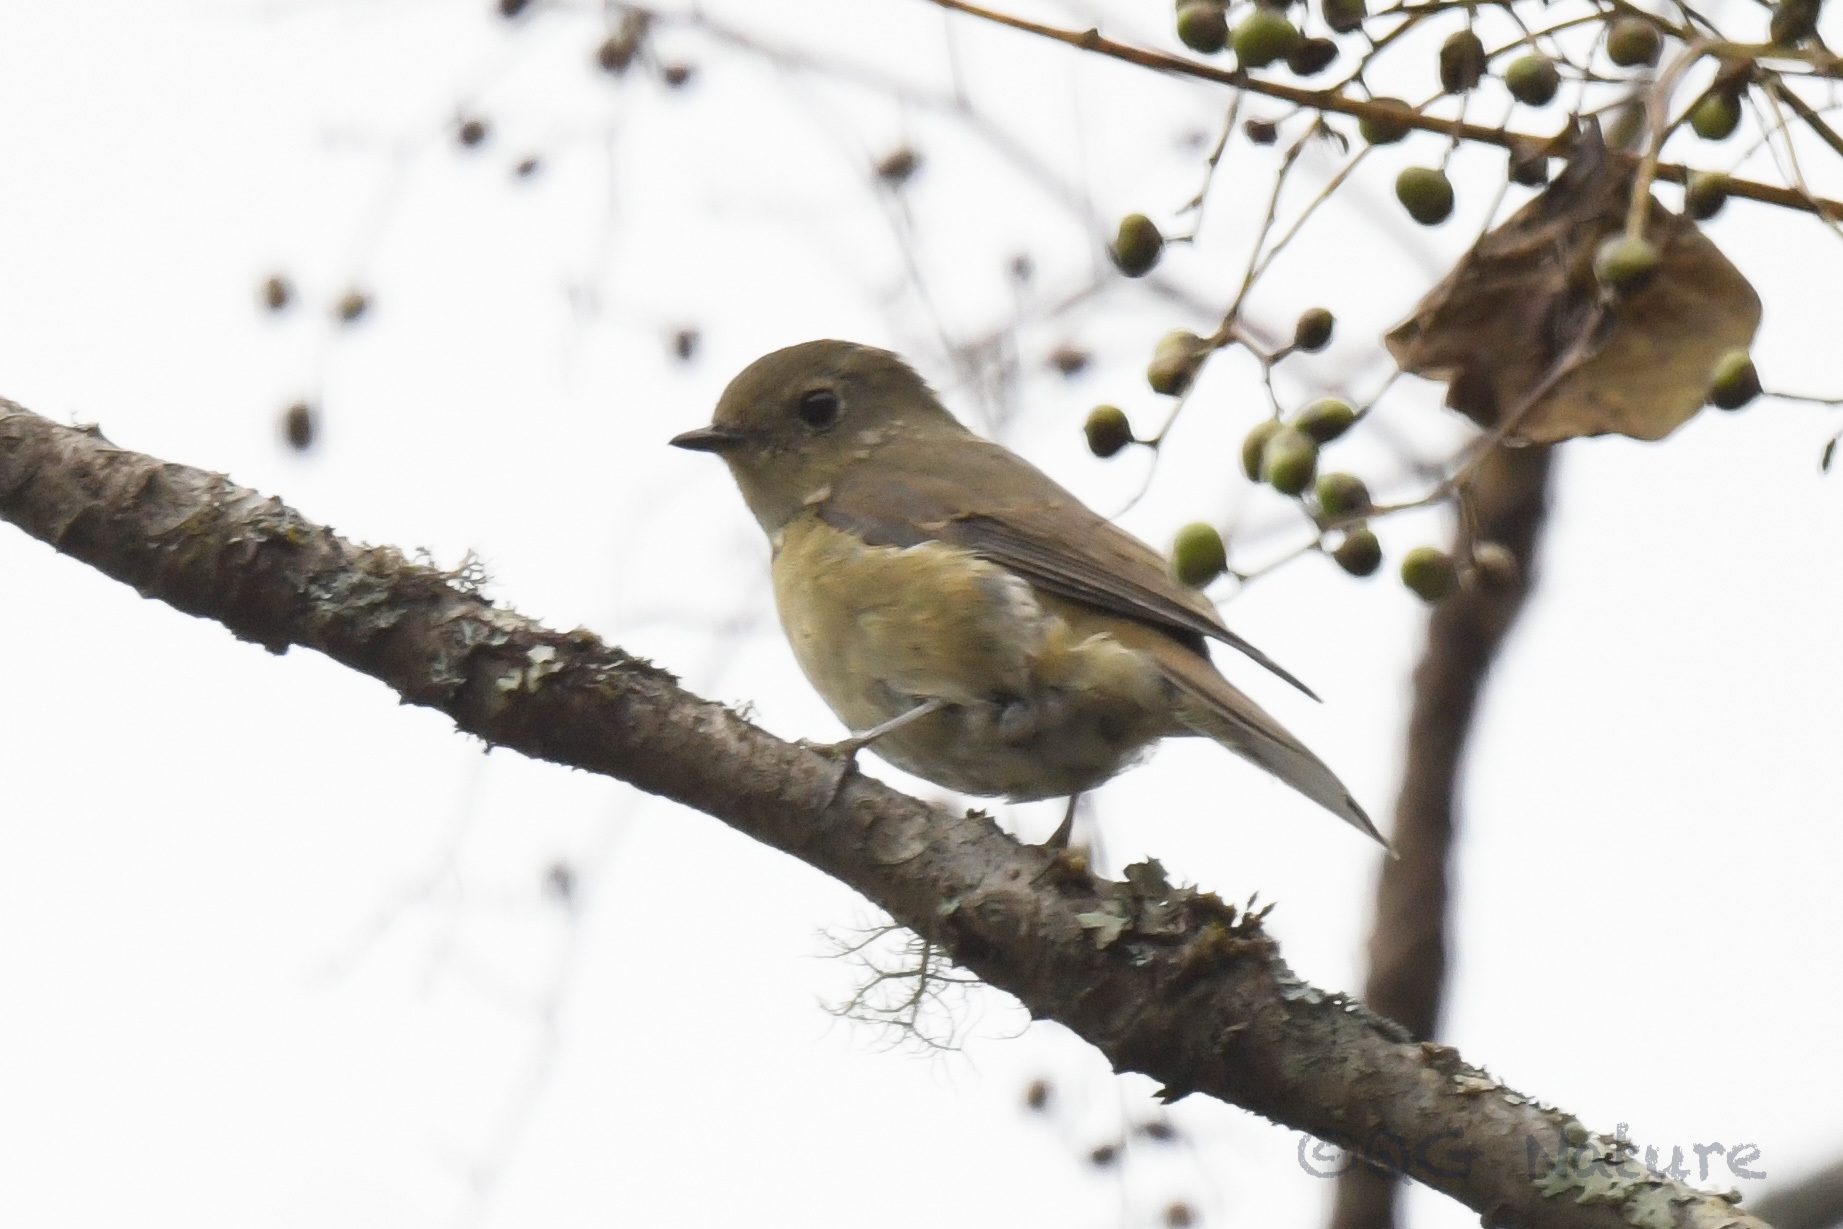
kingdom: Animalia
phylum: Chordata
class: Aves
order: Passeriformes
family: Muscicapidae
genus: Ficedula
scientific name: Ficedula erithacus
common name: Slaty-backed flycatcher
